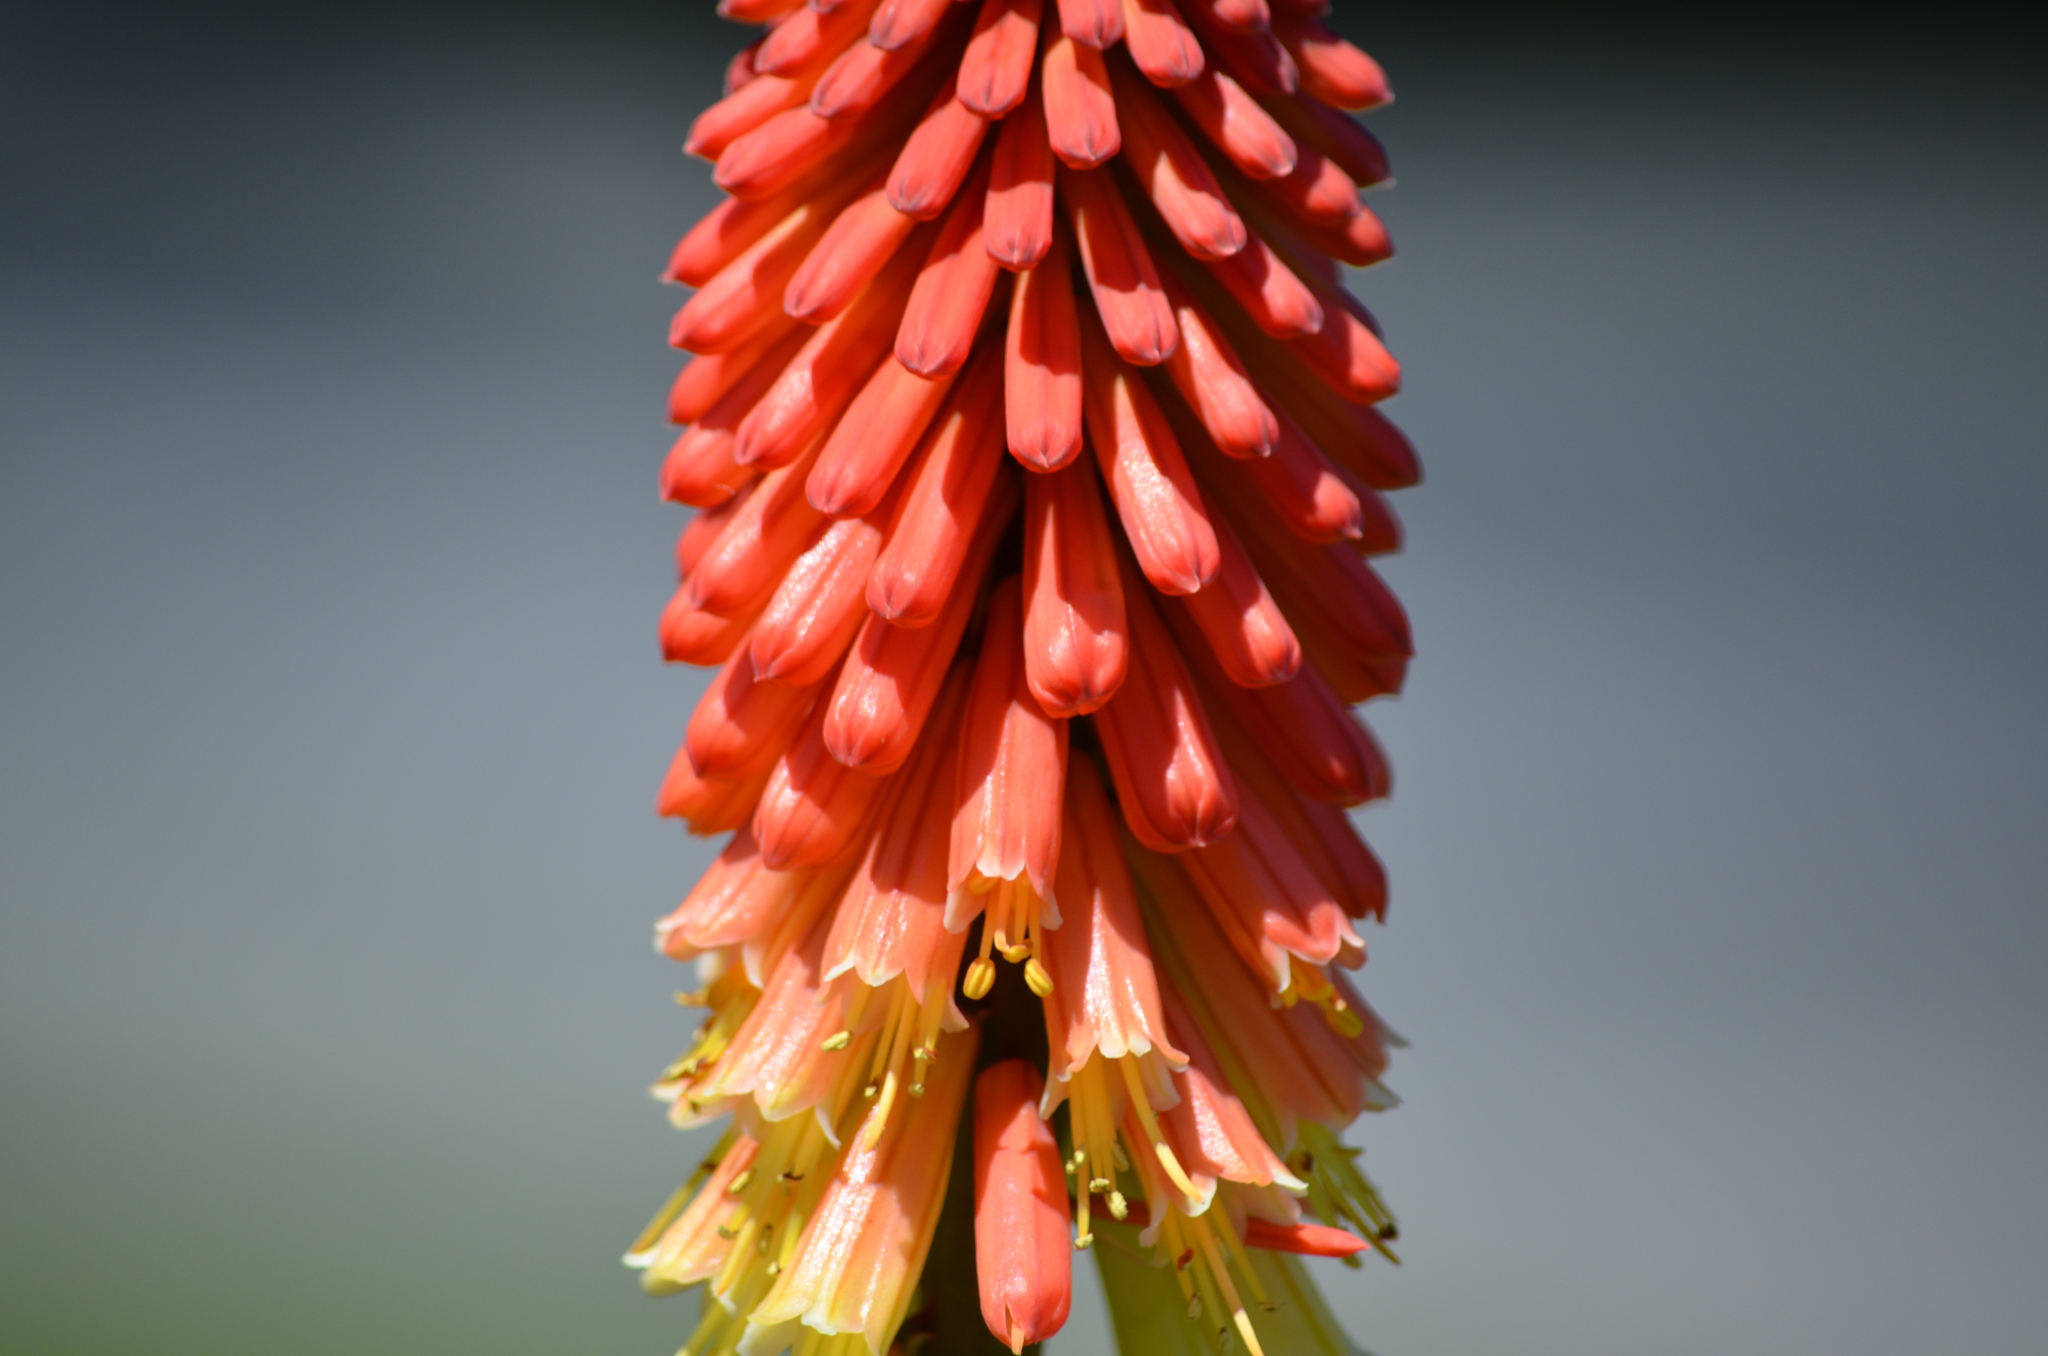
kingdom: Plantae
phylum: Tracheophyta
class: Liliopsida
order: Asparagales
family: Asphodelaceae
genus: Kniphofia
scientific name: Kniphofia uvaria
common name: Red-hot-poker
